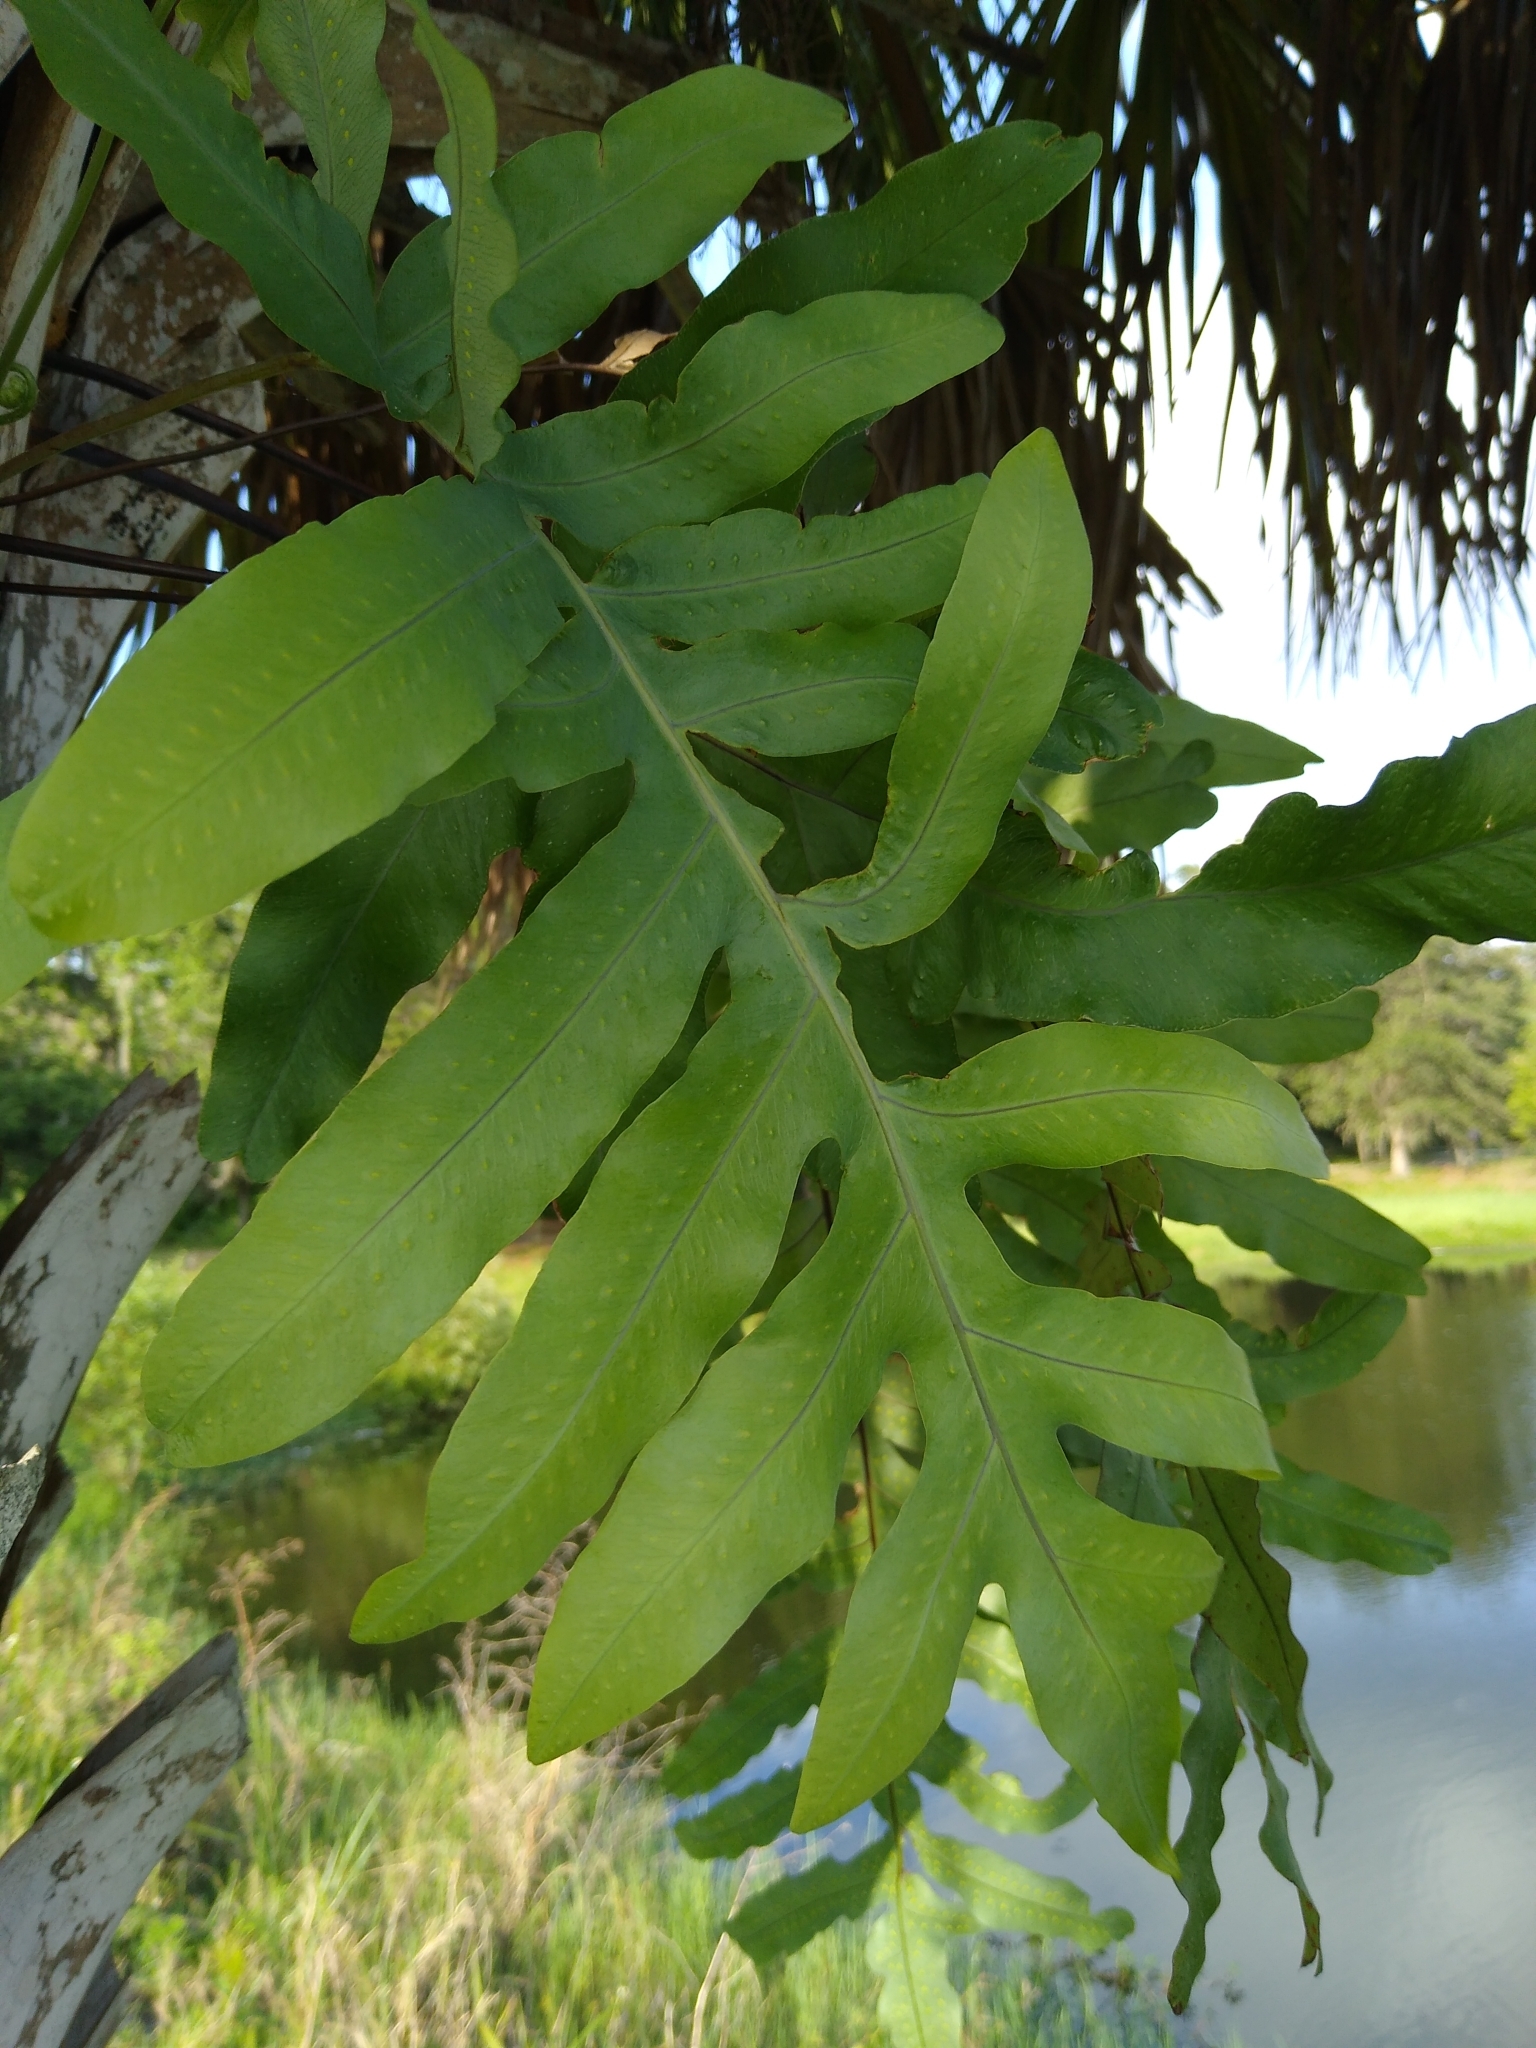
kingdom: Plantae
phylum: Tracheophyta
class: Polypodiopsida
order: Polypodiales
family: Polypodiaceae
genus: Phlebodium
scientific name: Phlebodium aureum
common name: Gold-foot fern
